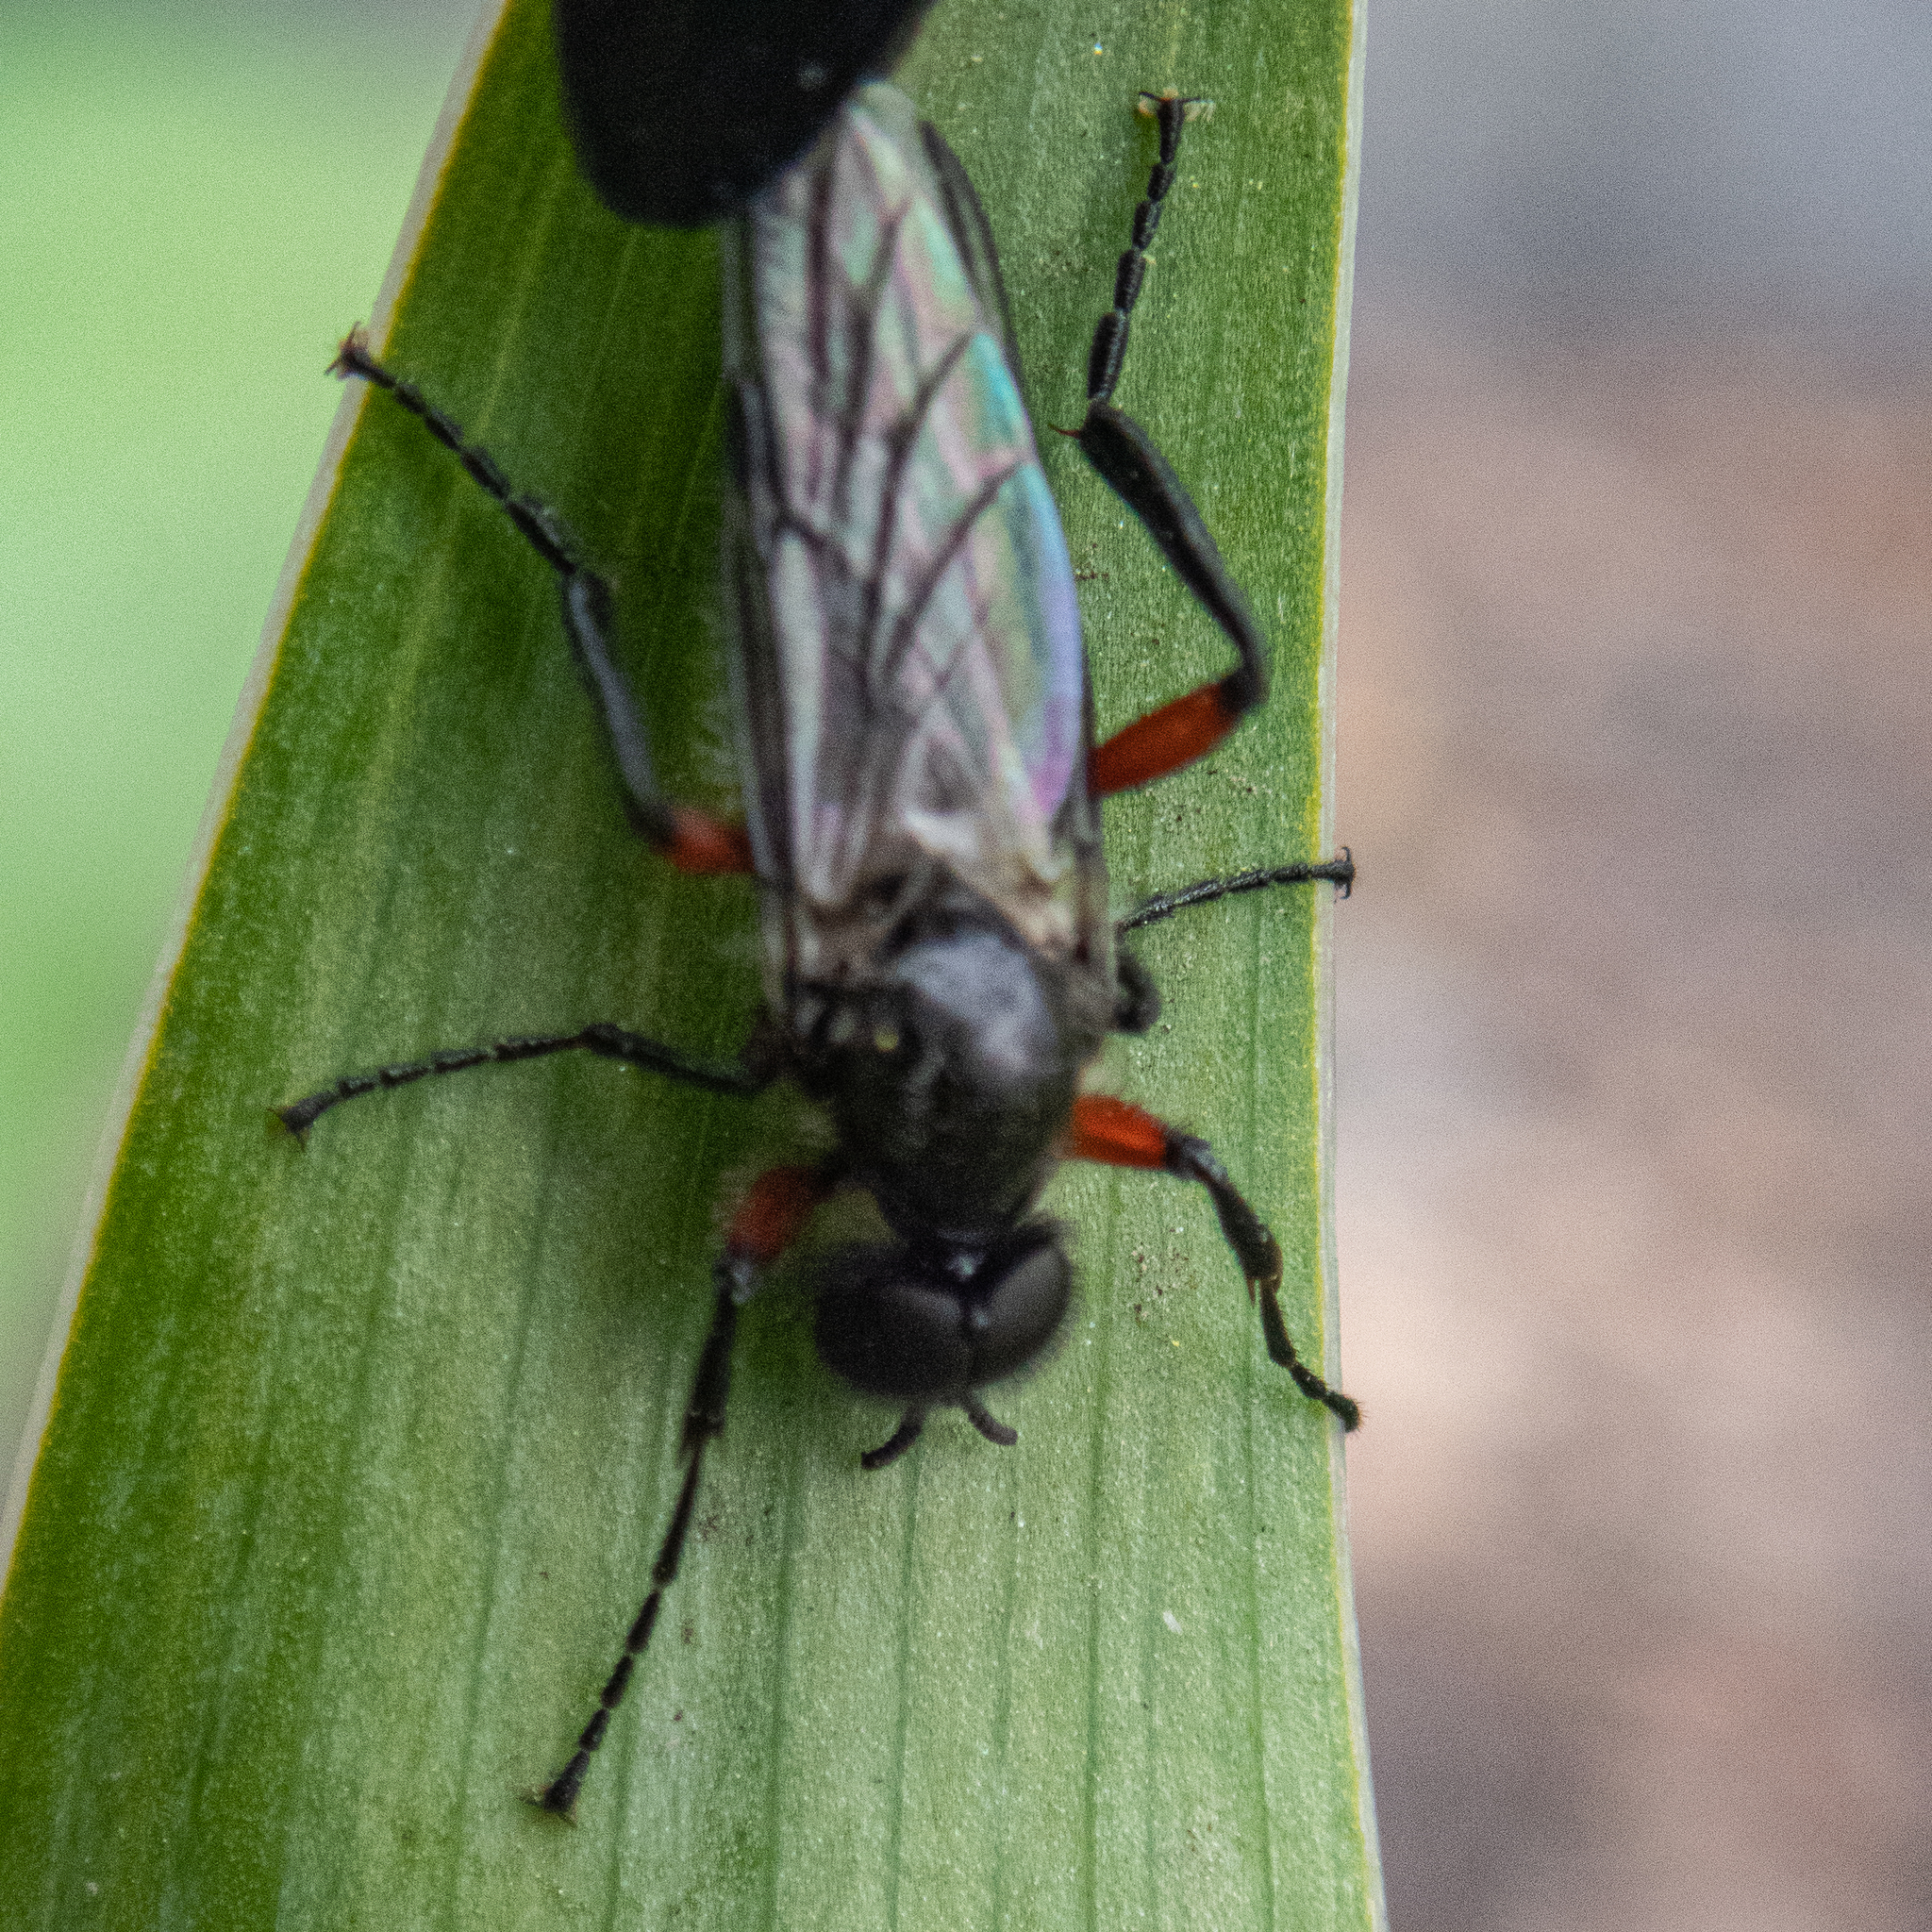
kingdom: Animalia
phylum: Arthropoda
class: Insecta
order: Diptera
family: Bibionidae
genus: Bibio
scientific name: Bibio femoratus
